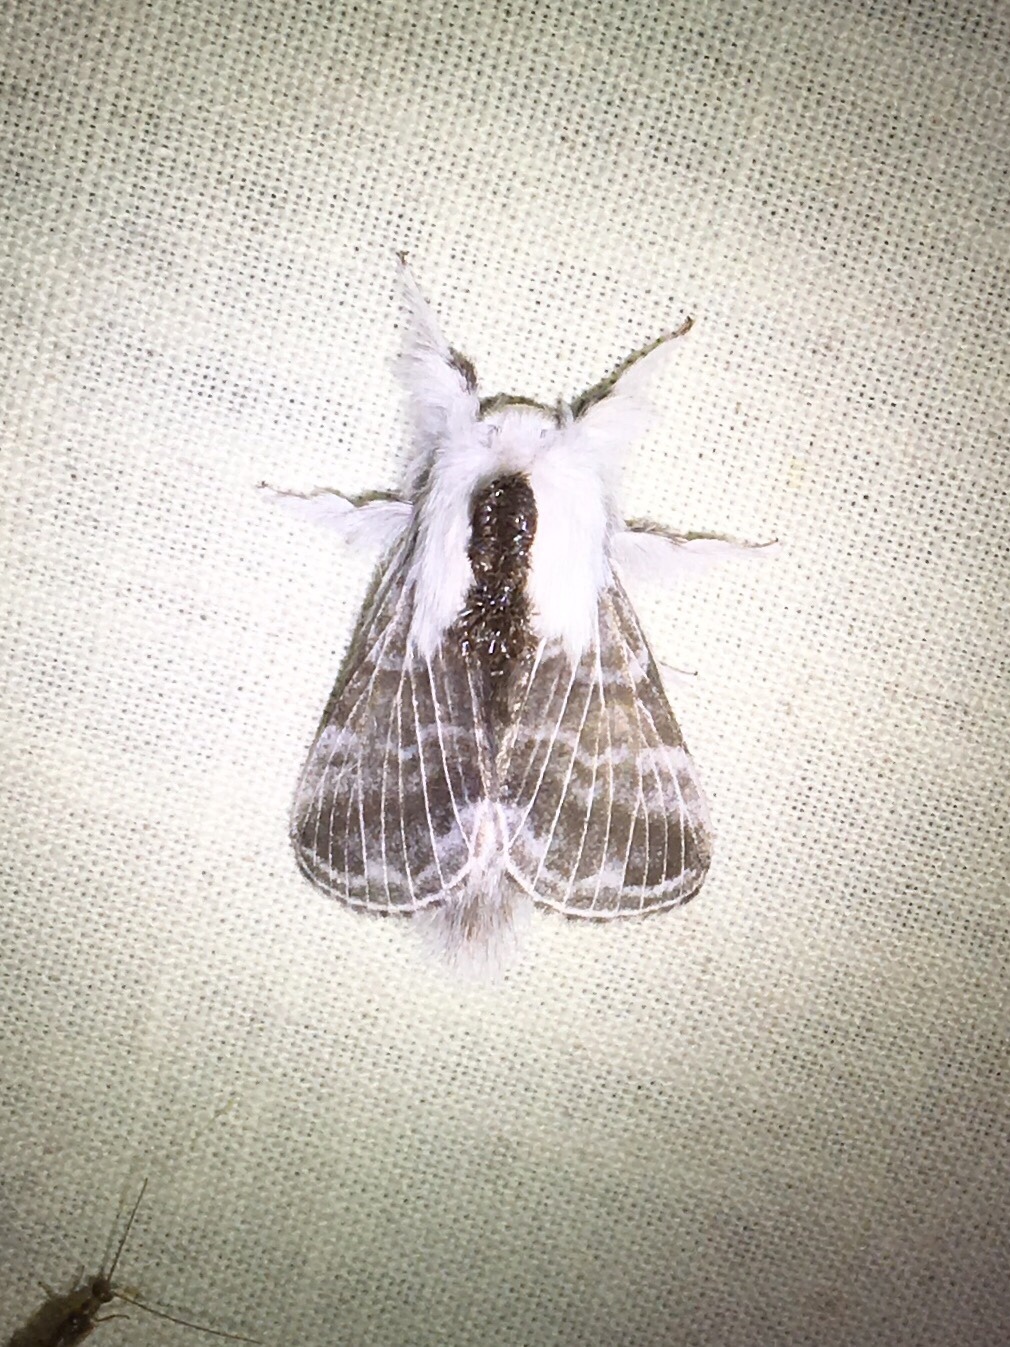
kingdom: Animalia
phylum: Arthropoda
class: Insecta
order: Lepidoptera
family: Lasiocampidae
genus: Tolype
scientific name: Tolype velleda
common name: Large tolype moth
